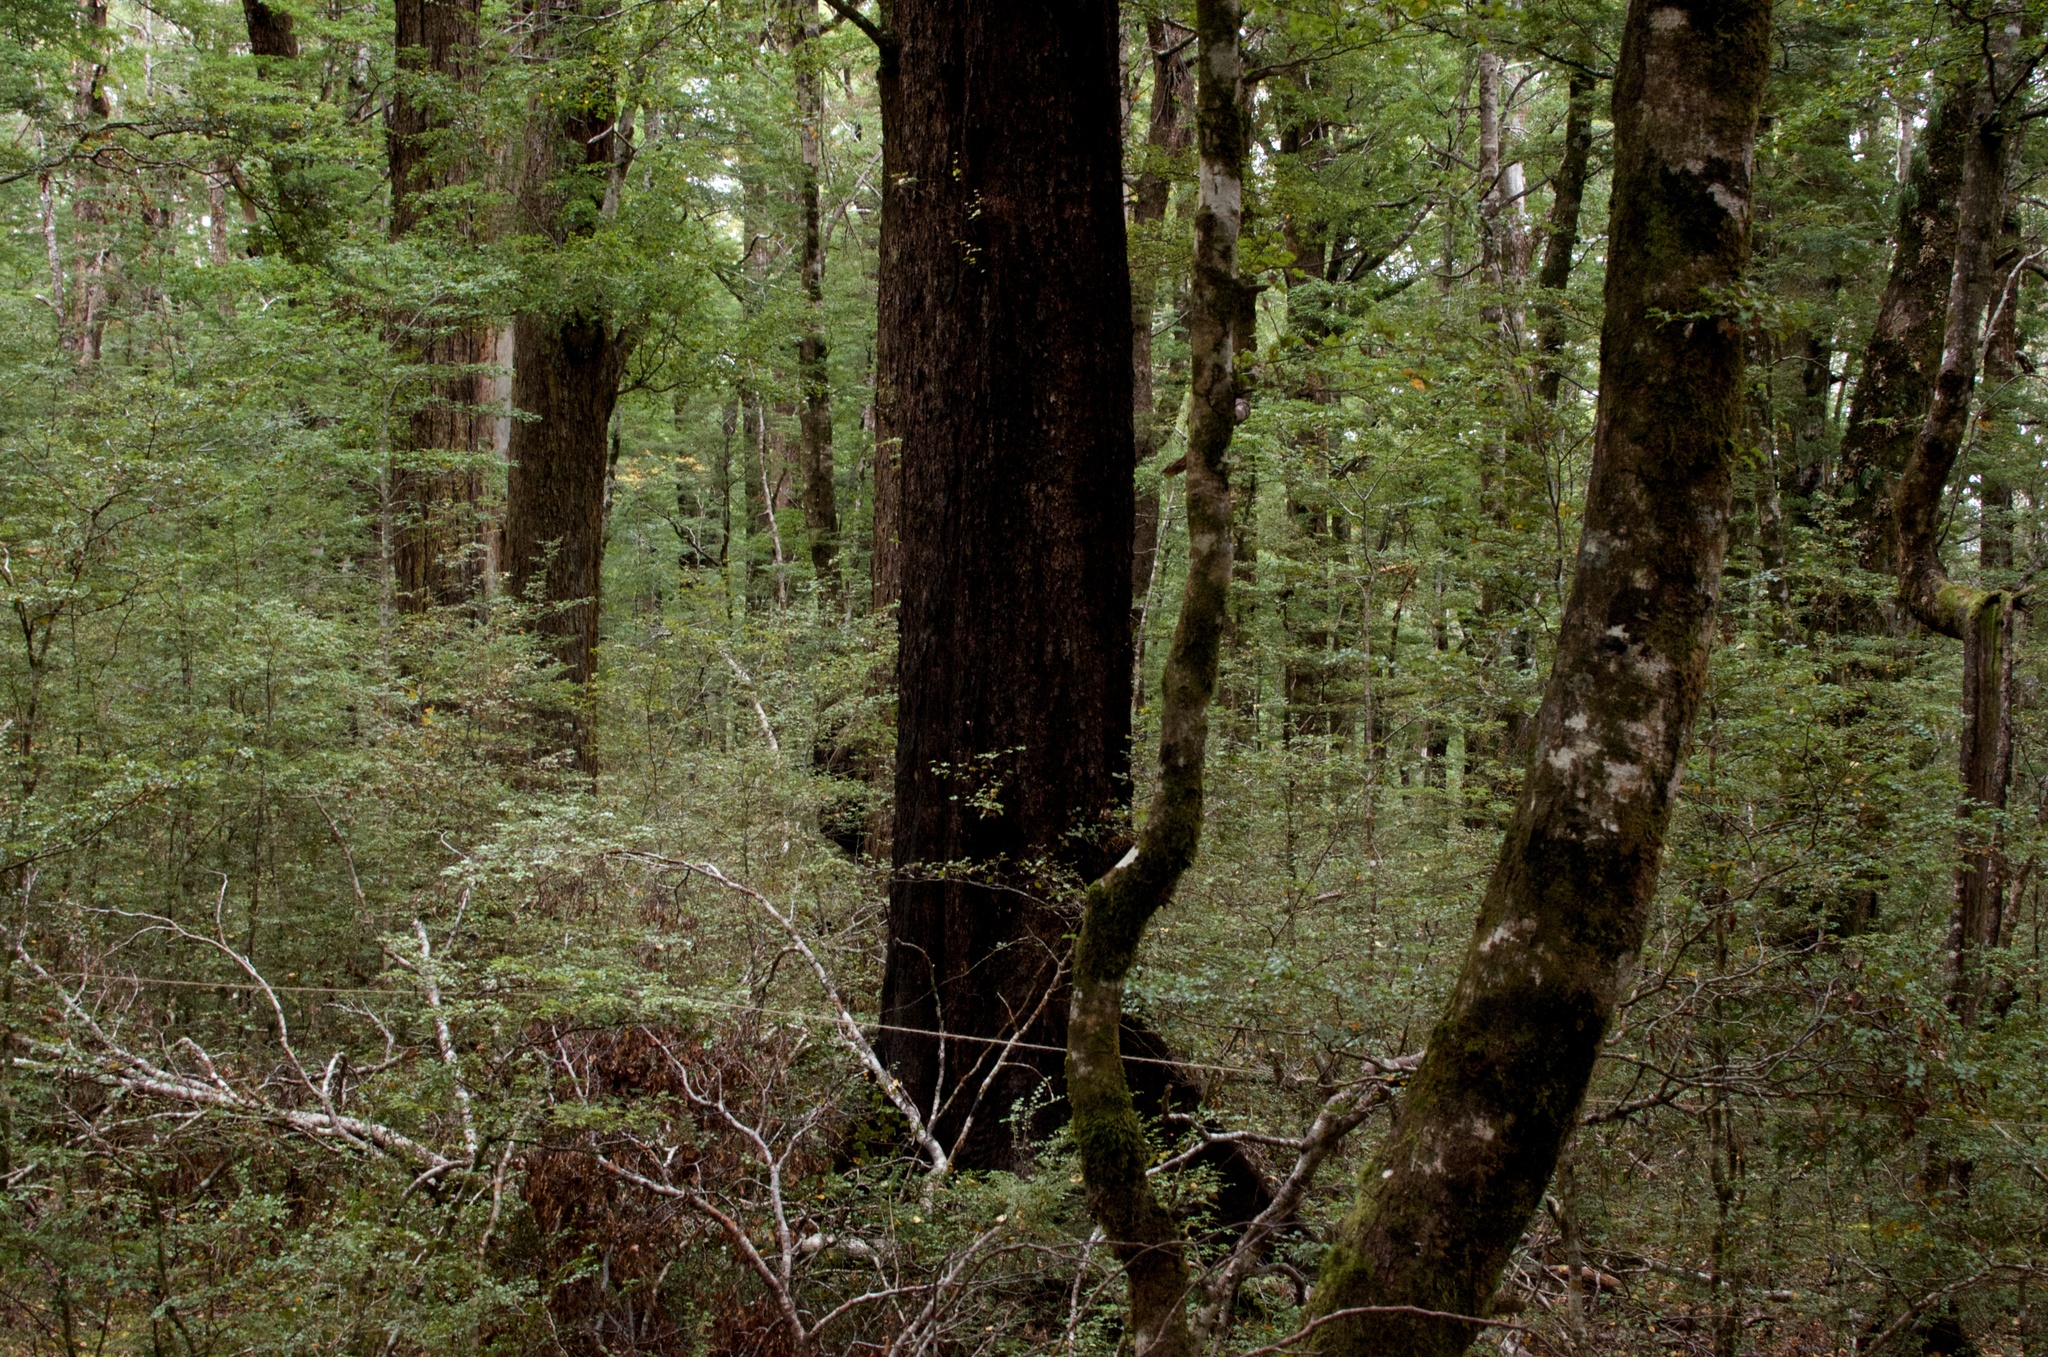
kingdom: Plantae
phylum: Tracheophyta
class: Magnoliopsida
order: Fagales
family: Nothofagaceae
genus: Nothofagus
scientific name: Nothofagus fusca
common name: Red beech
